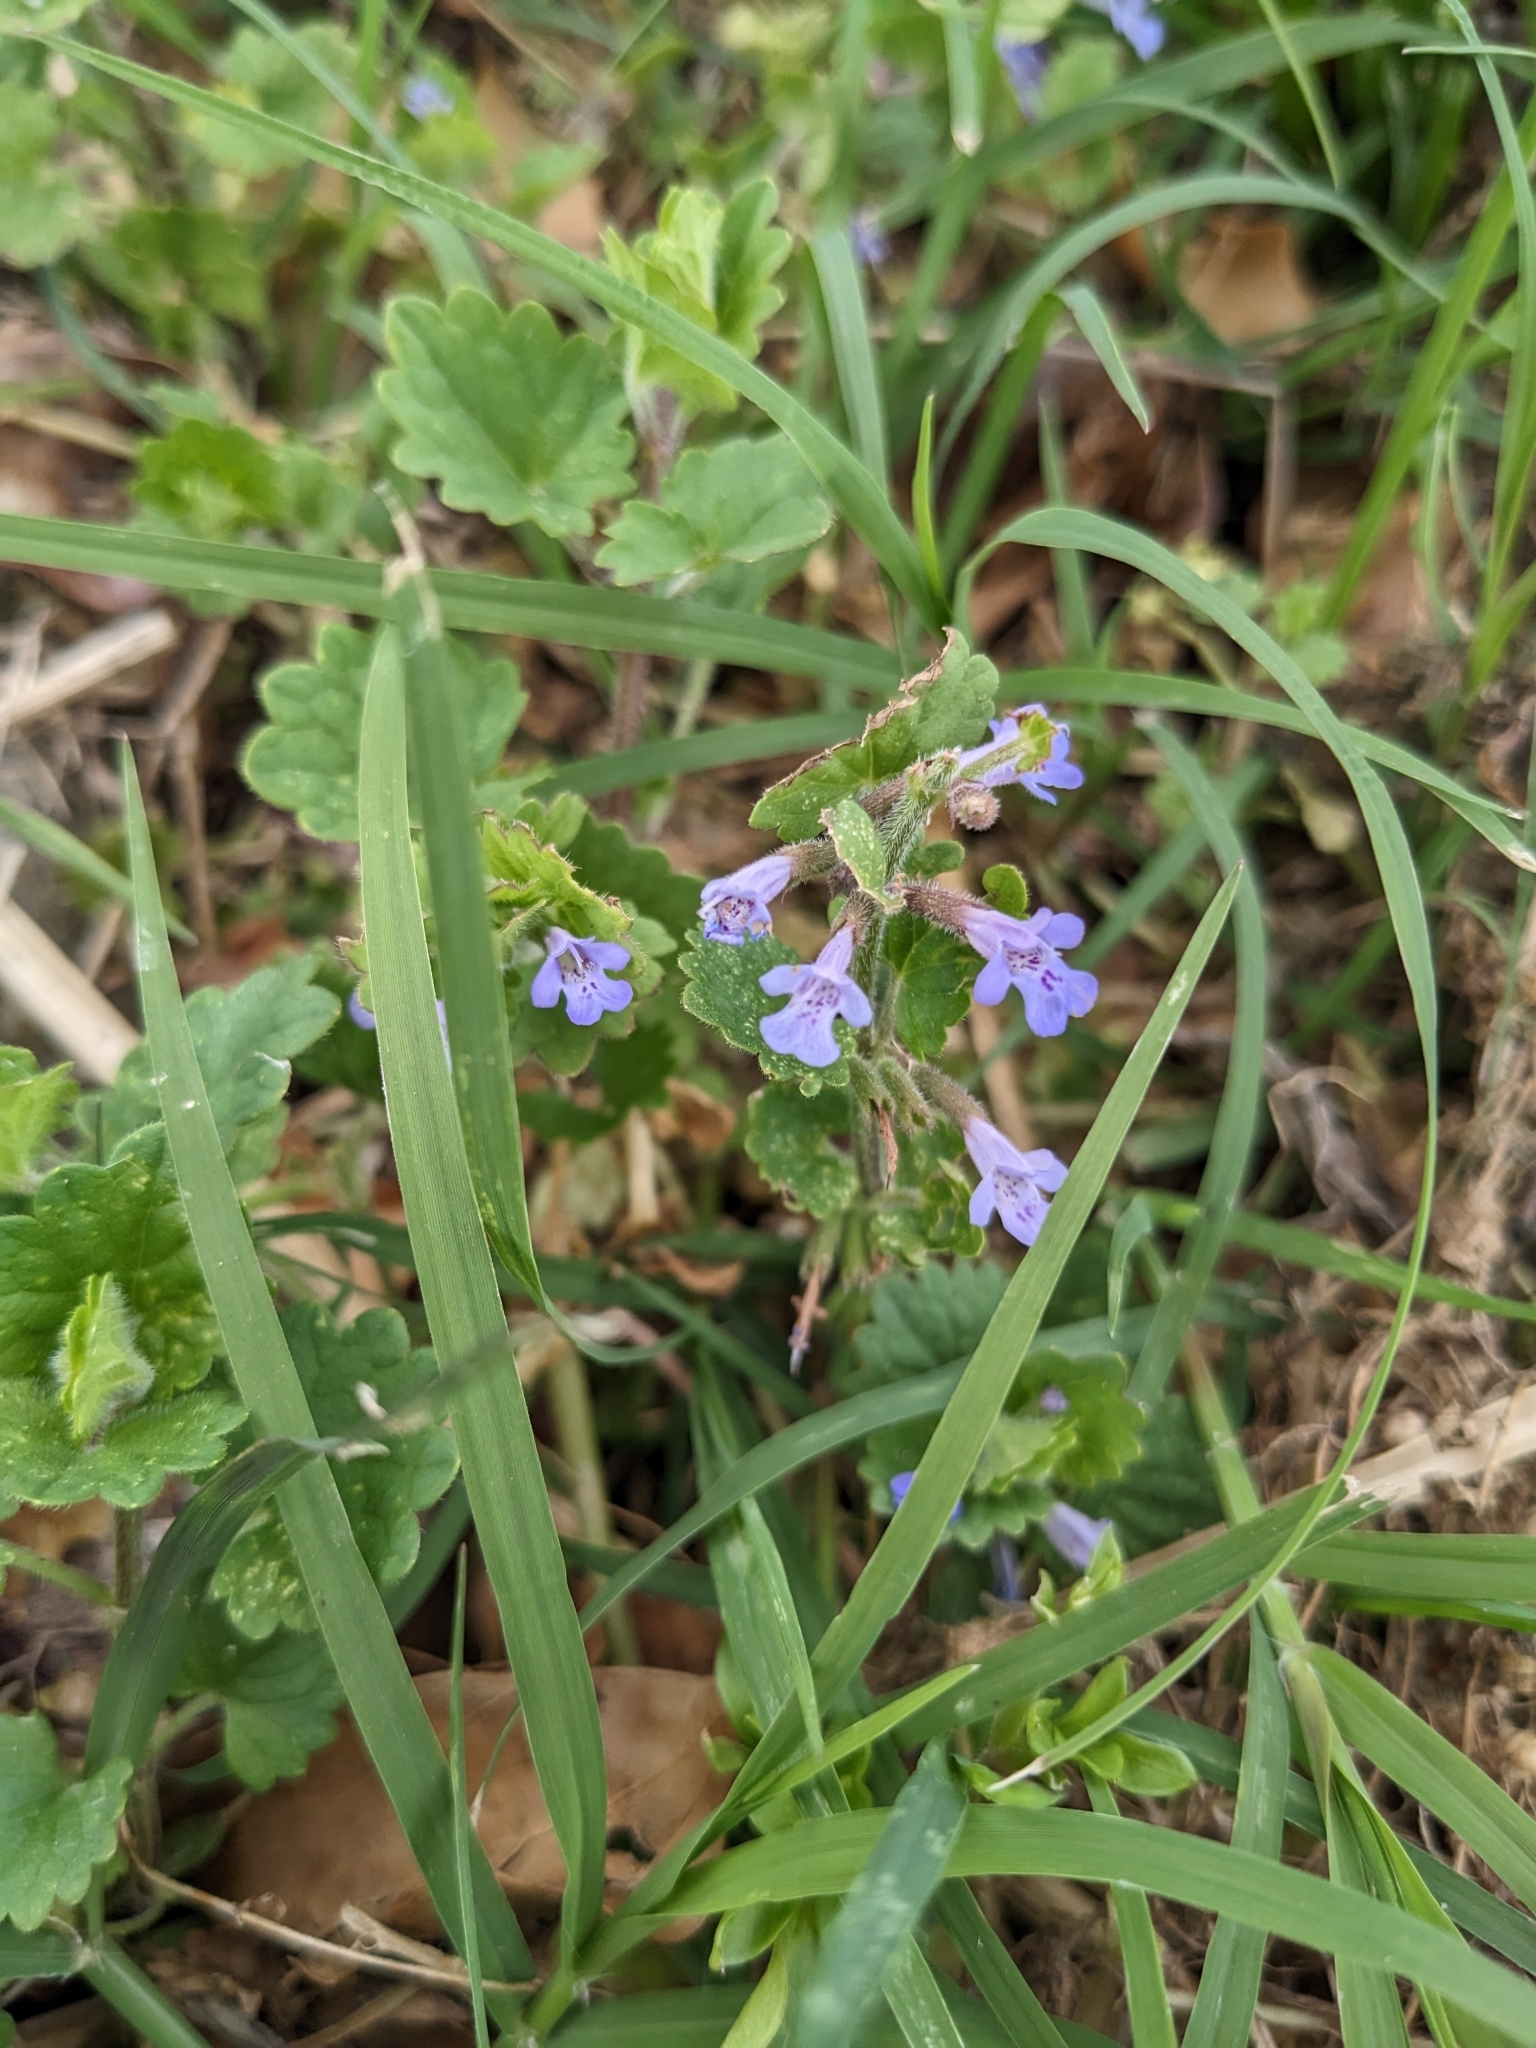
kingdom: Plantae
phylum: Tracheophyta
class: Magnoliopsida
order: Lamiales
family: Lamiaceae
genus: Glechoma
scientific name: Glechoma hederacea
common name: Ground ivy
